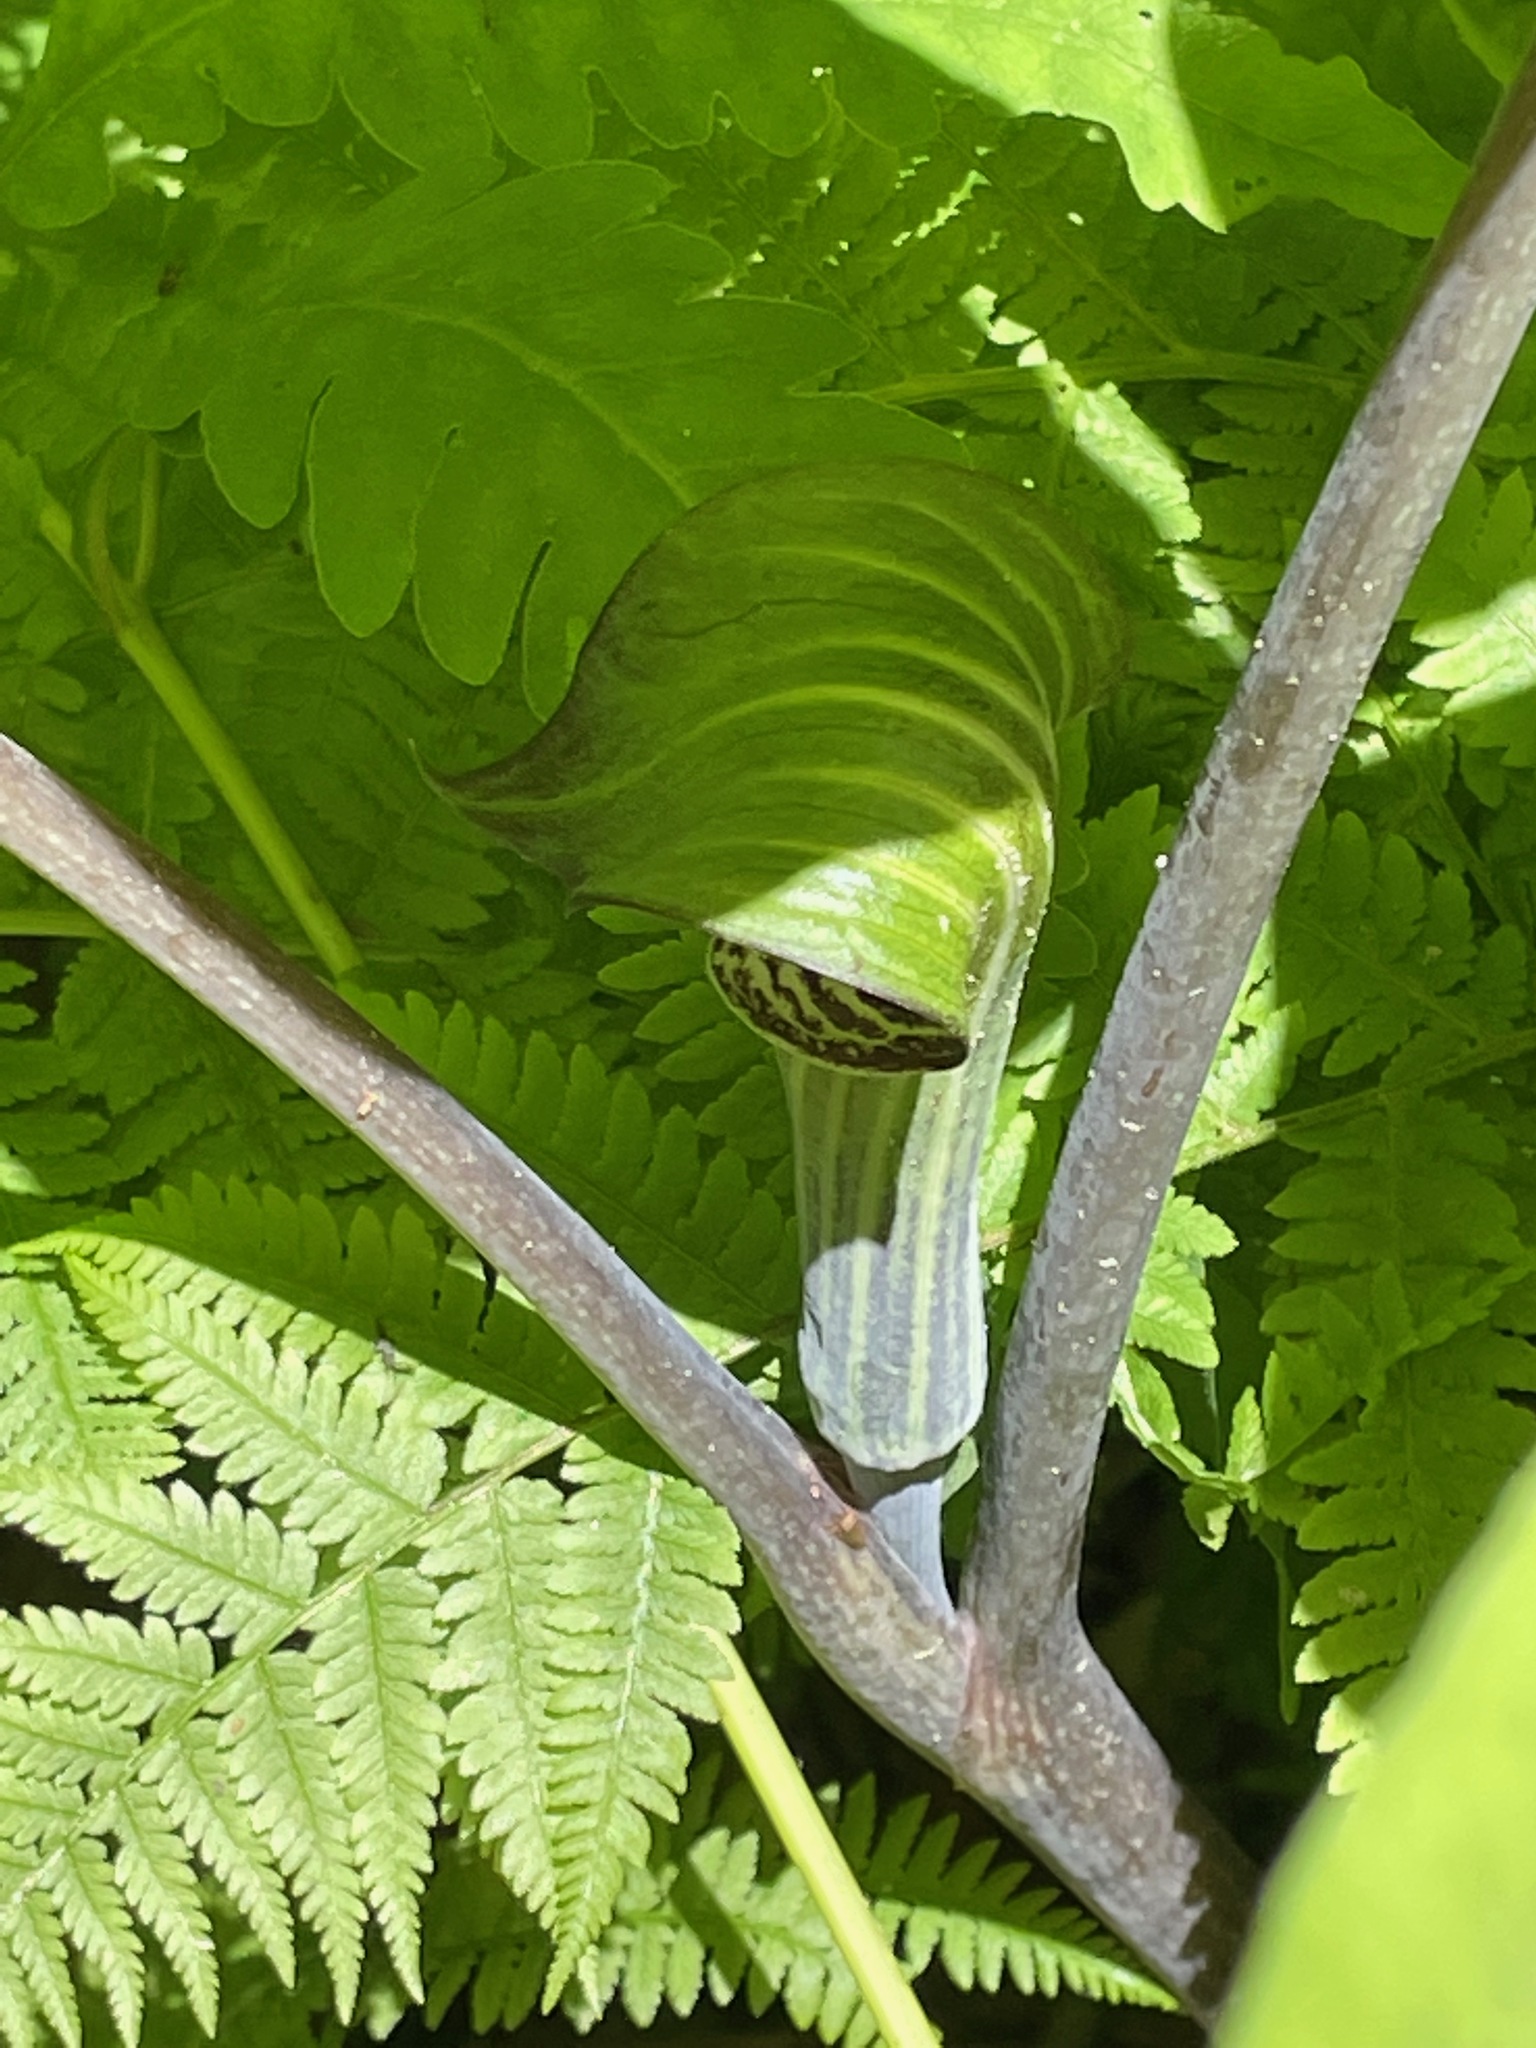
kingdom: Plantae
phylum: Tracheophyta
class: Liliopsida
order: Alismatales
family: Araceae
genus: Arisaema
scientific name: Arisaema triphyllum
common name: Jack-in-the-pulpit
